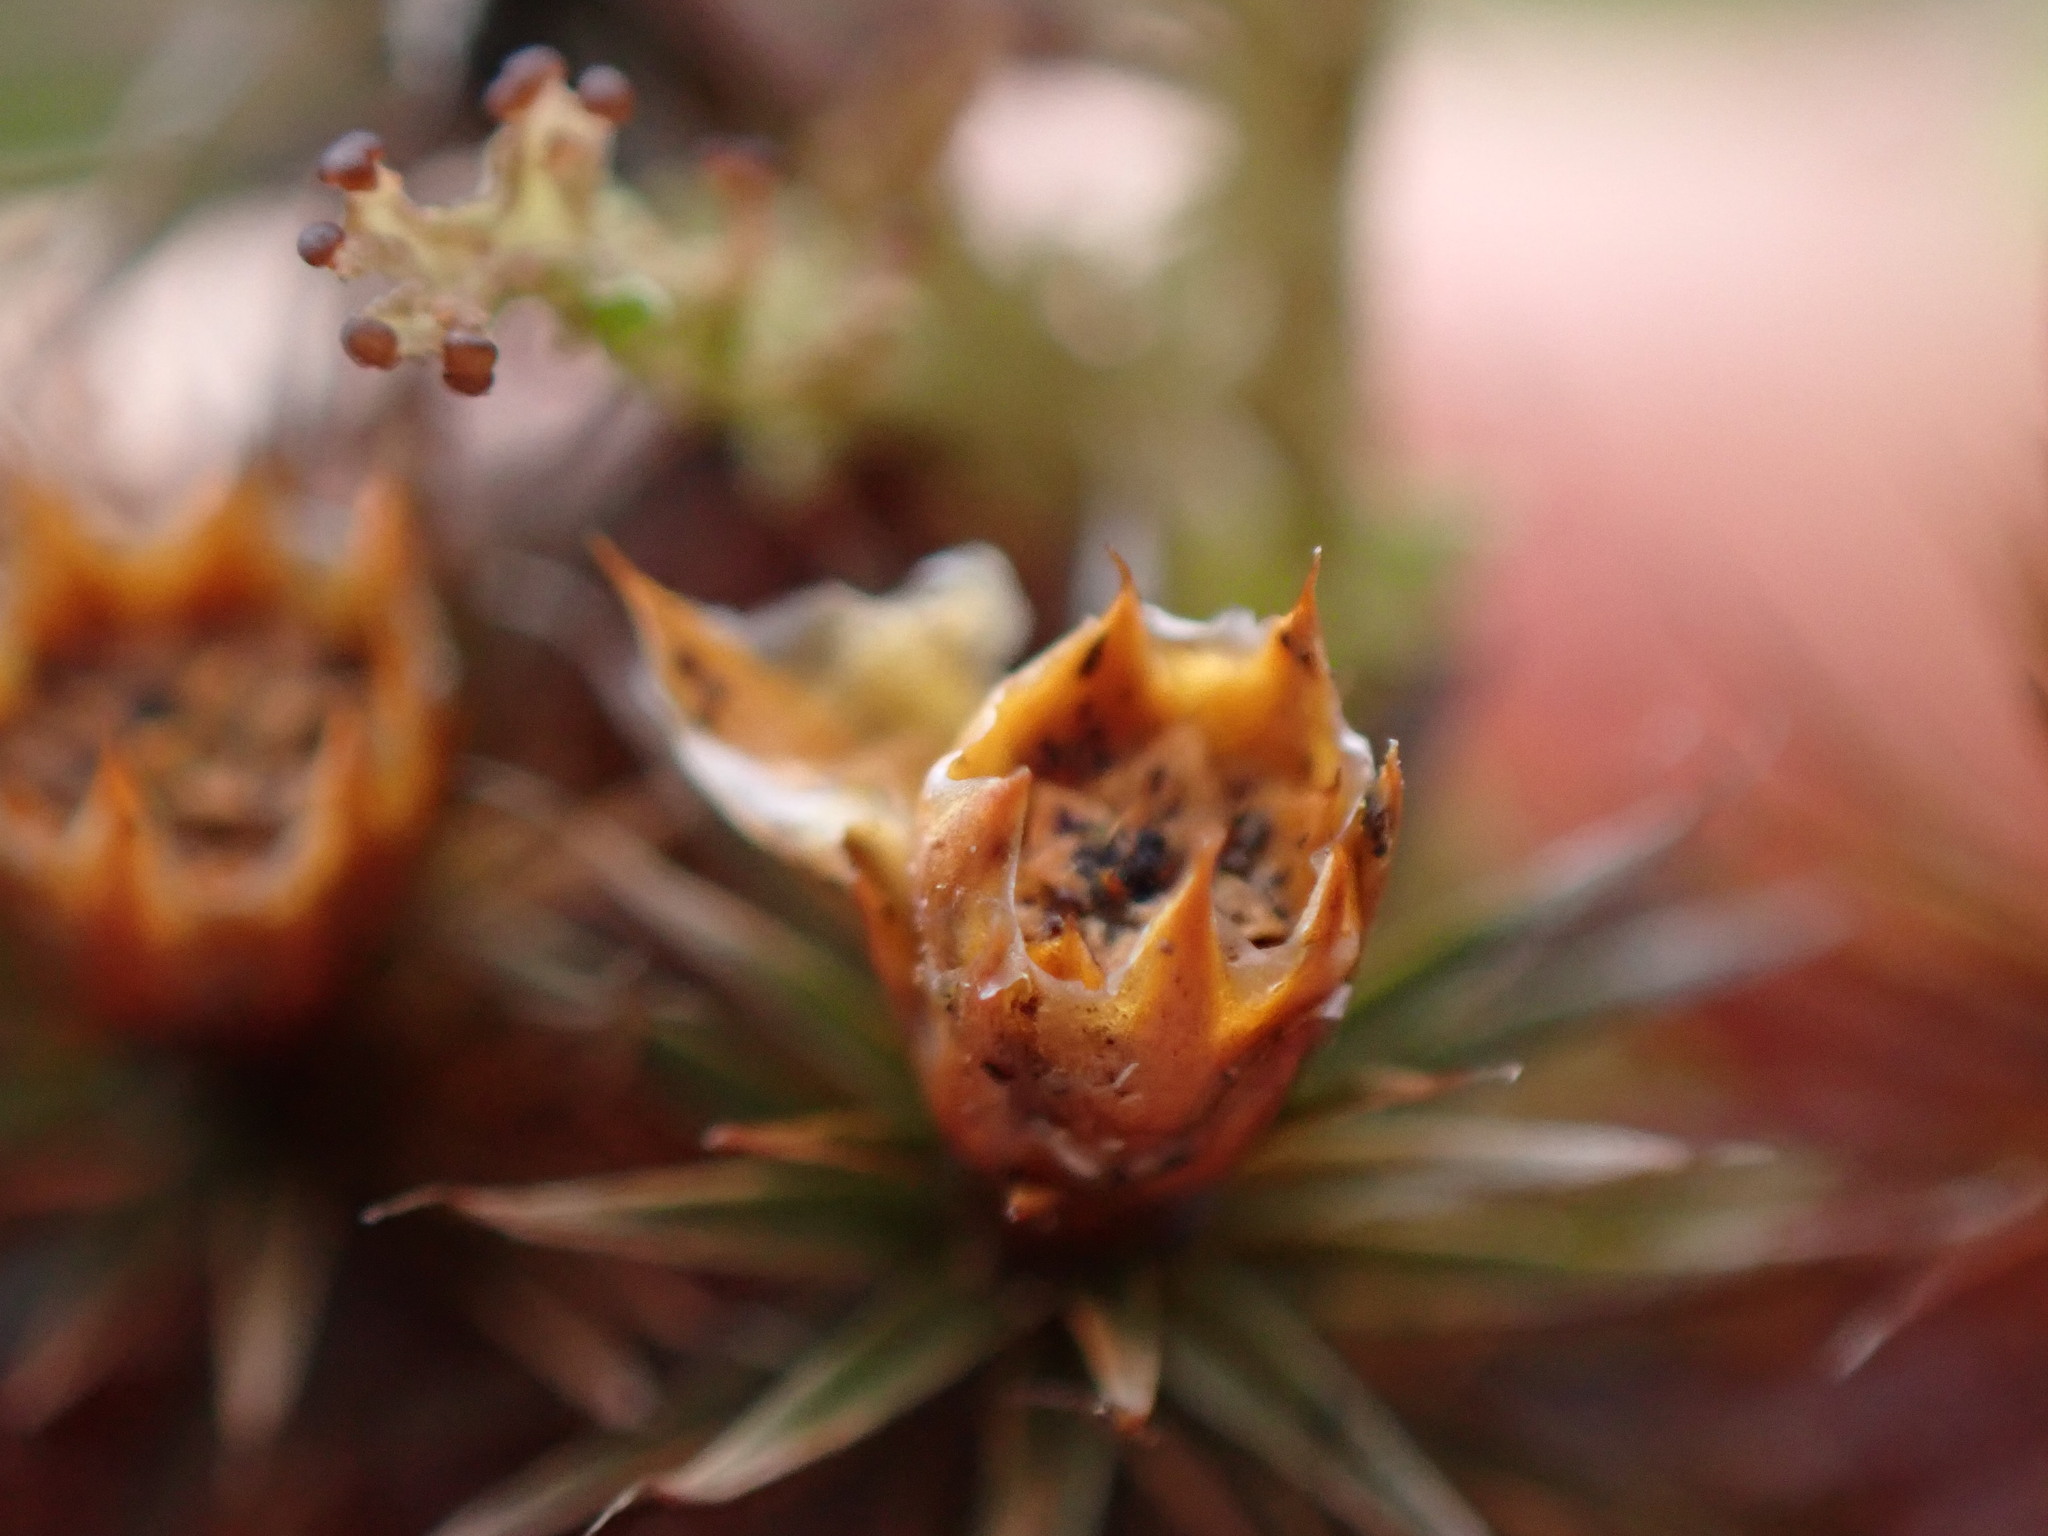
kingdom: Plantae
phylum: Bryophyta
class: Polytrichopsida
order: Polytrichales
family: Polytrichaceae
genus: Polytrichum
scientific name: Polytrichum juniperinum
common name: Juniper haircap moss
